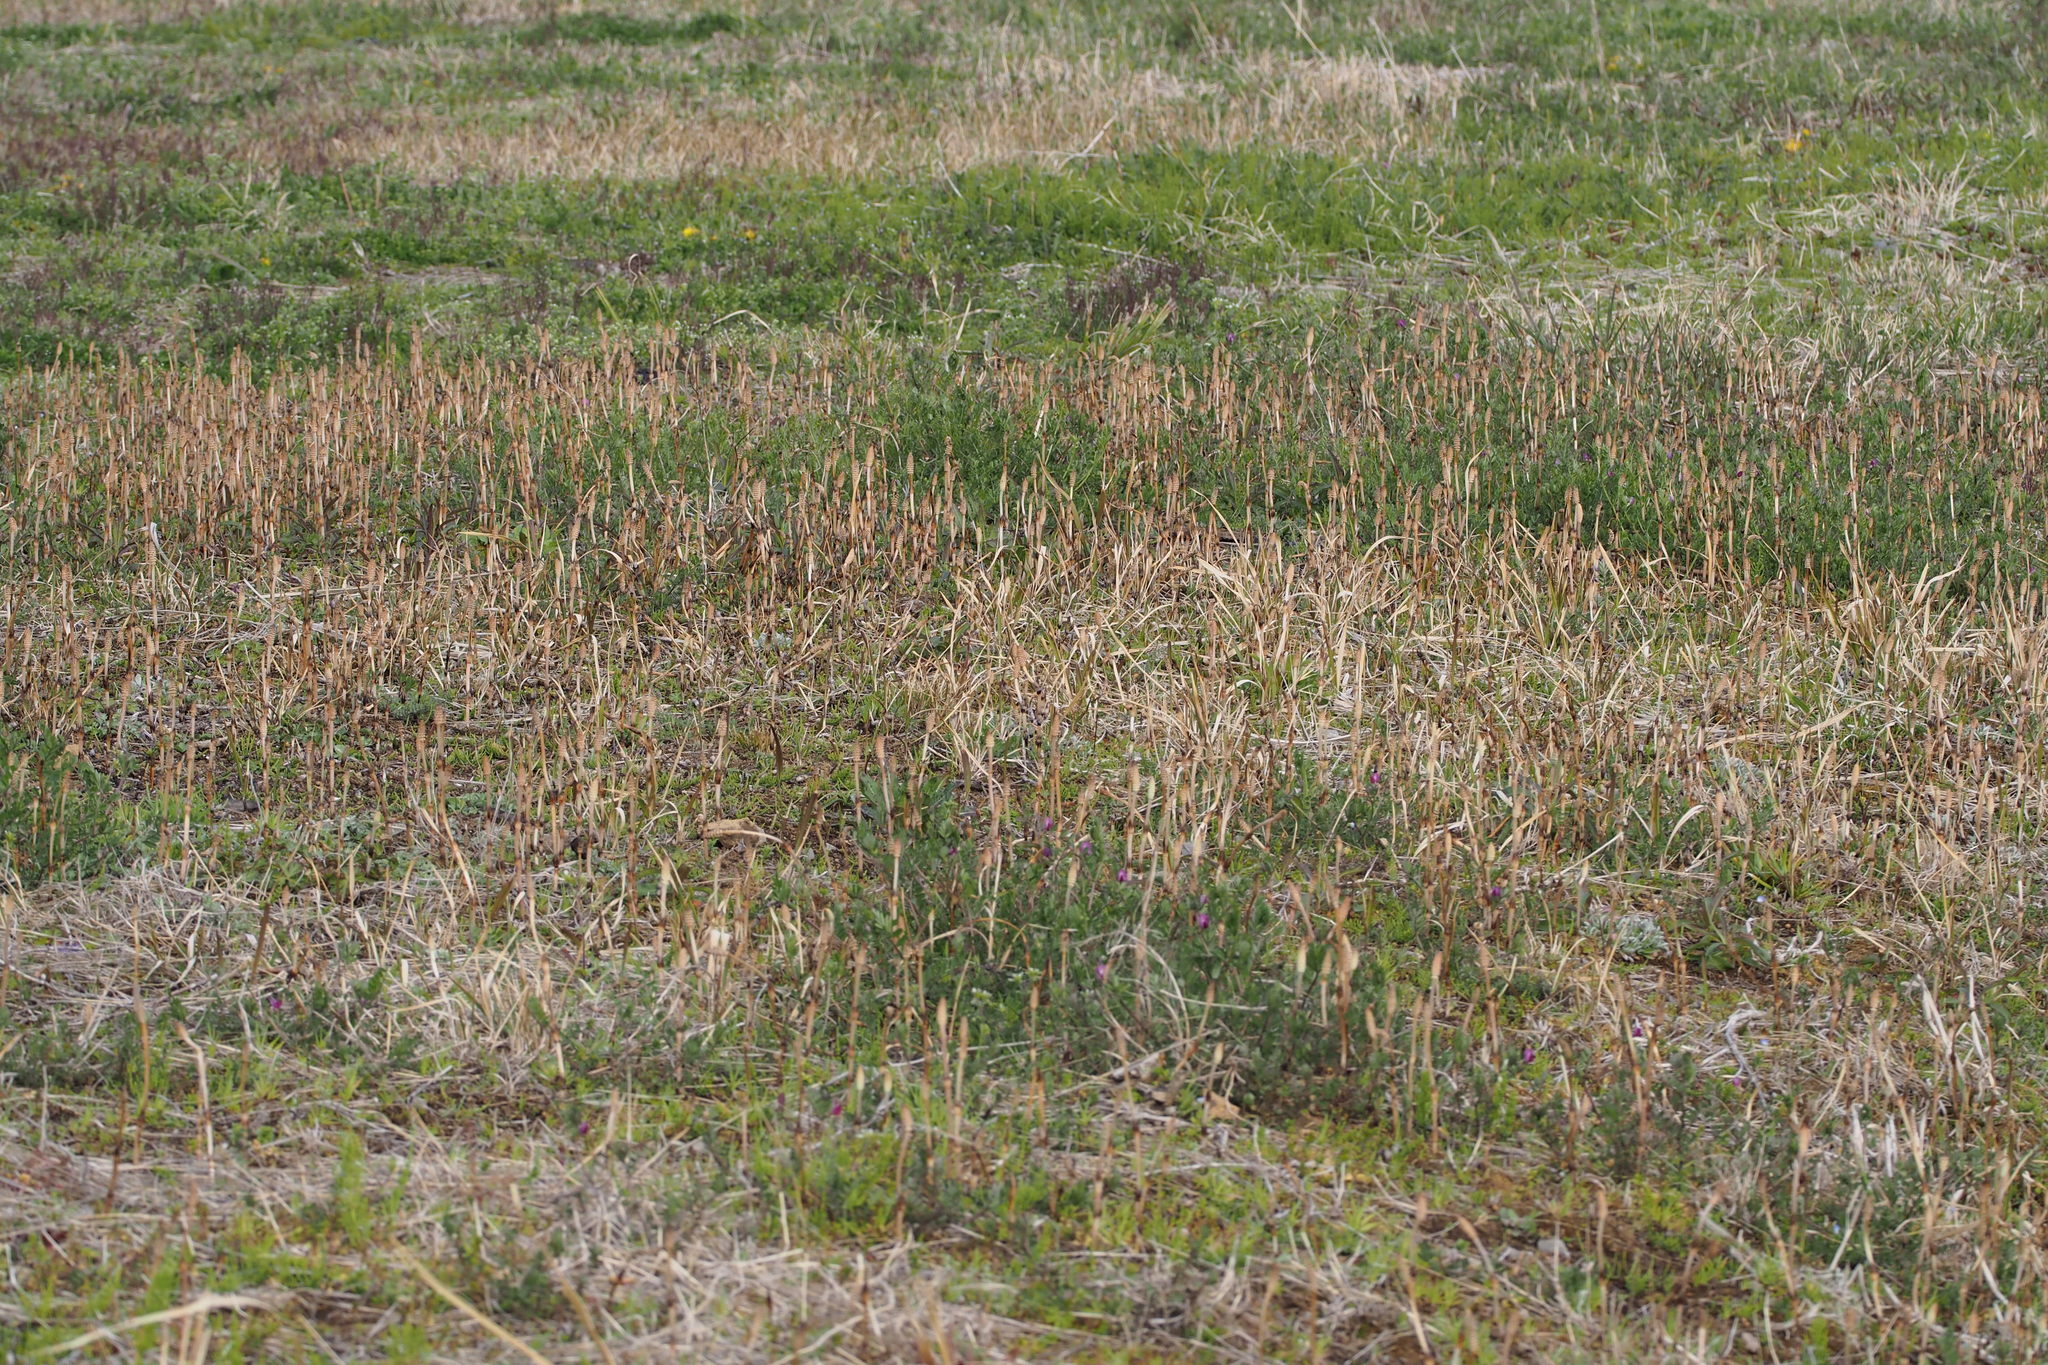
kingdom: Plantae
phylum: Tracheophyta
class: Polypodiopsida
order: Equisetales
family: Equisetaceae
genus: Equisetum
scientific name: Equisetum arvense
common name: Field horsetail
